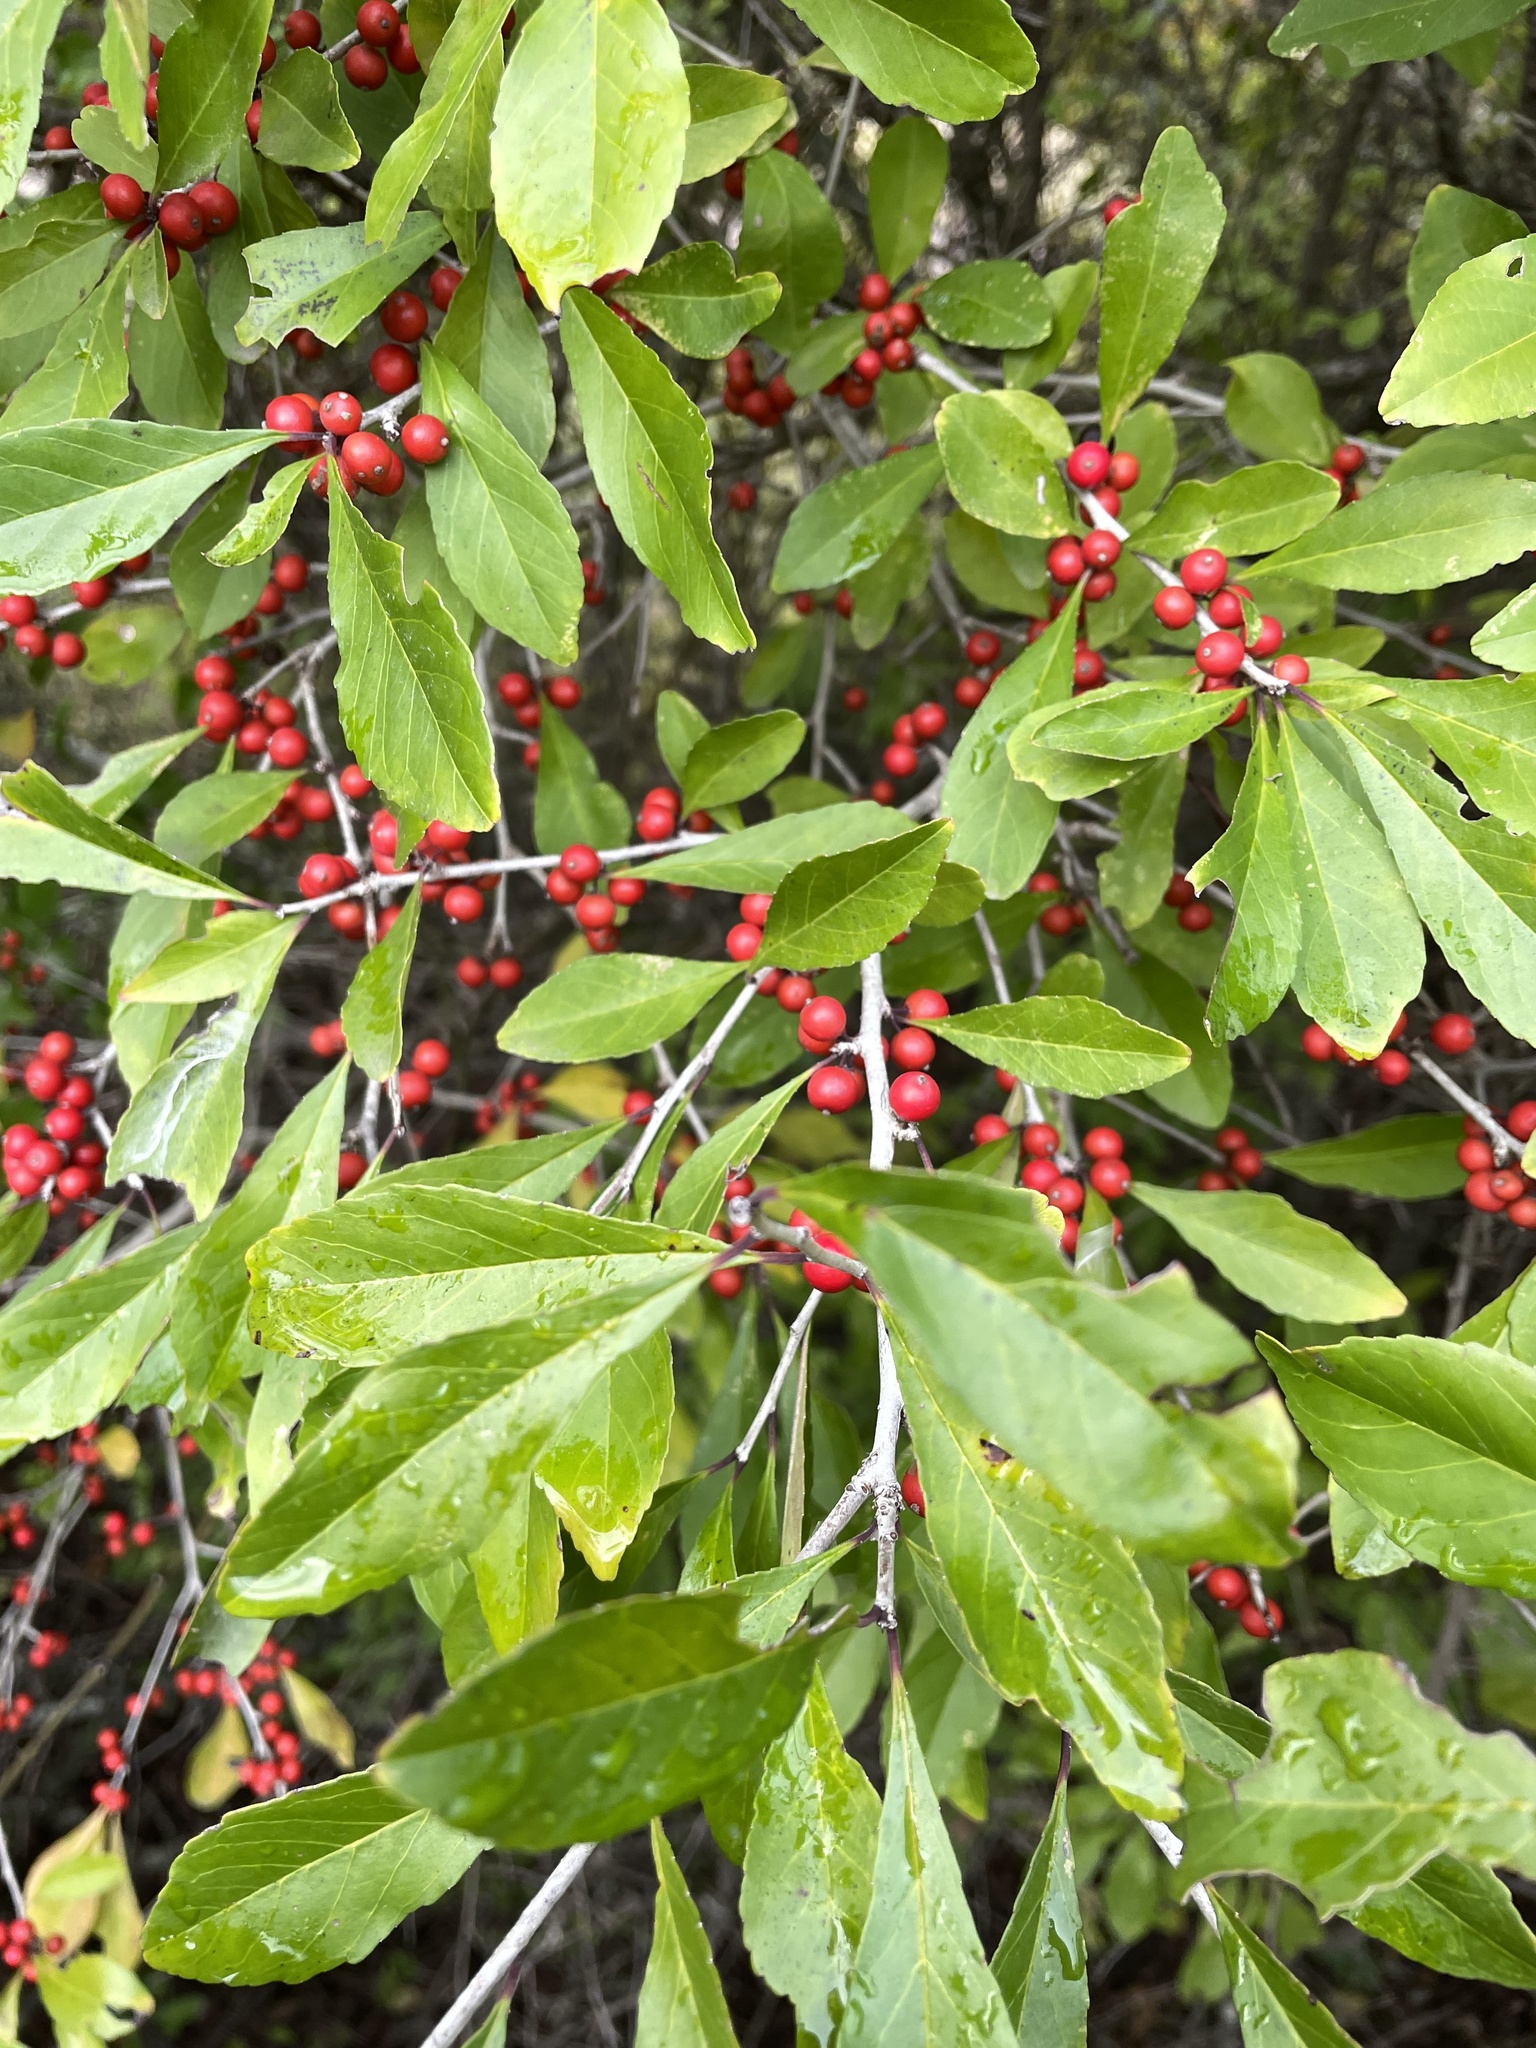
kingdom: Plantae
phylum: Tracheophyta
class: Magnoliopsida
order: Aquifoliales
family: Aquifoliaceae
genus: Ilex
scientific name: Ilex decidua
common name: Possum-haw
